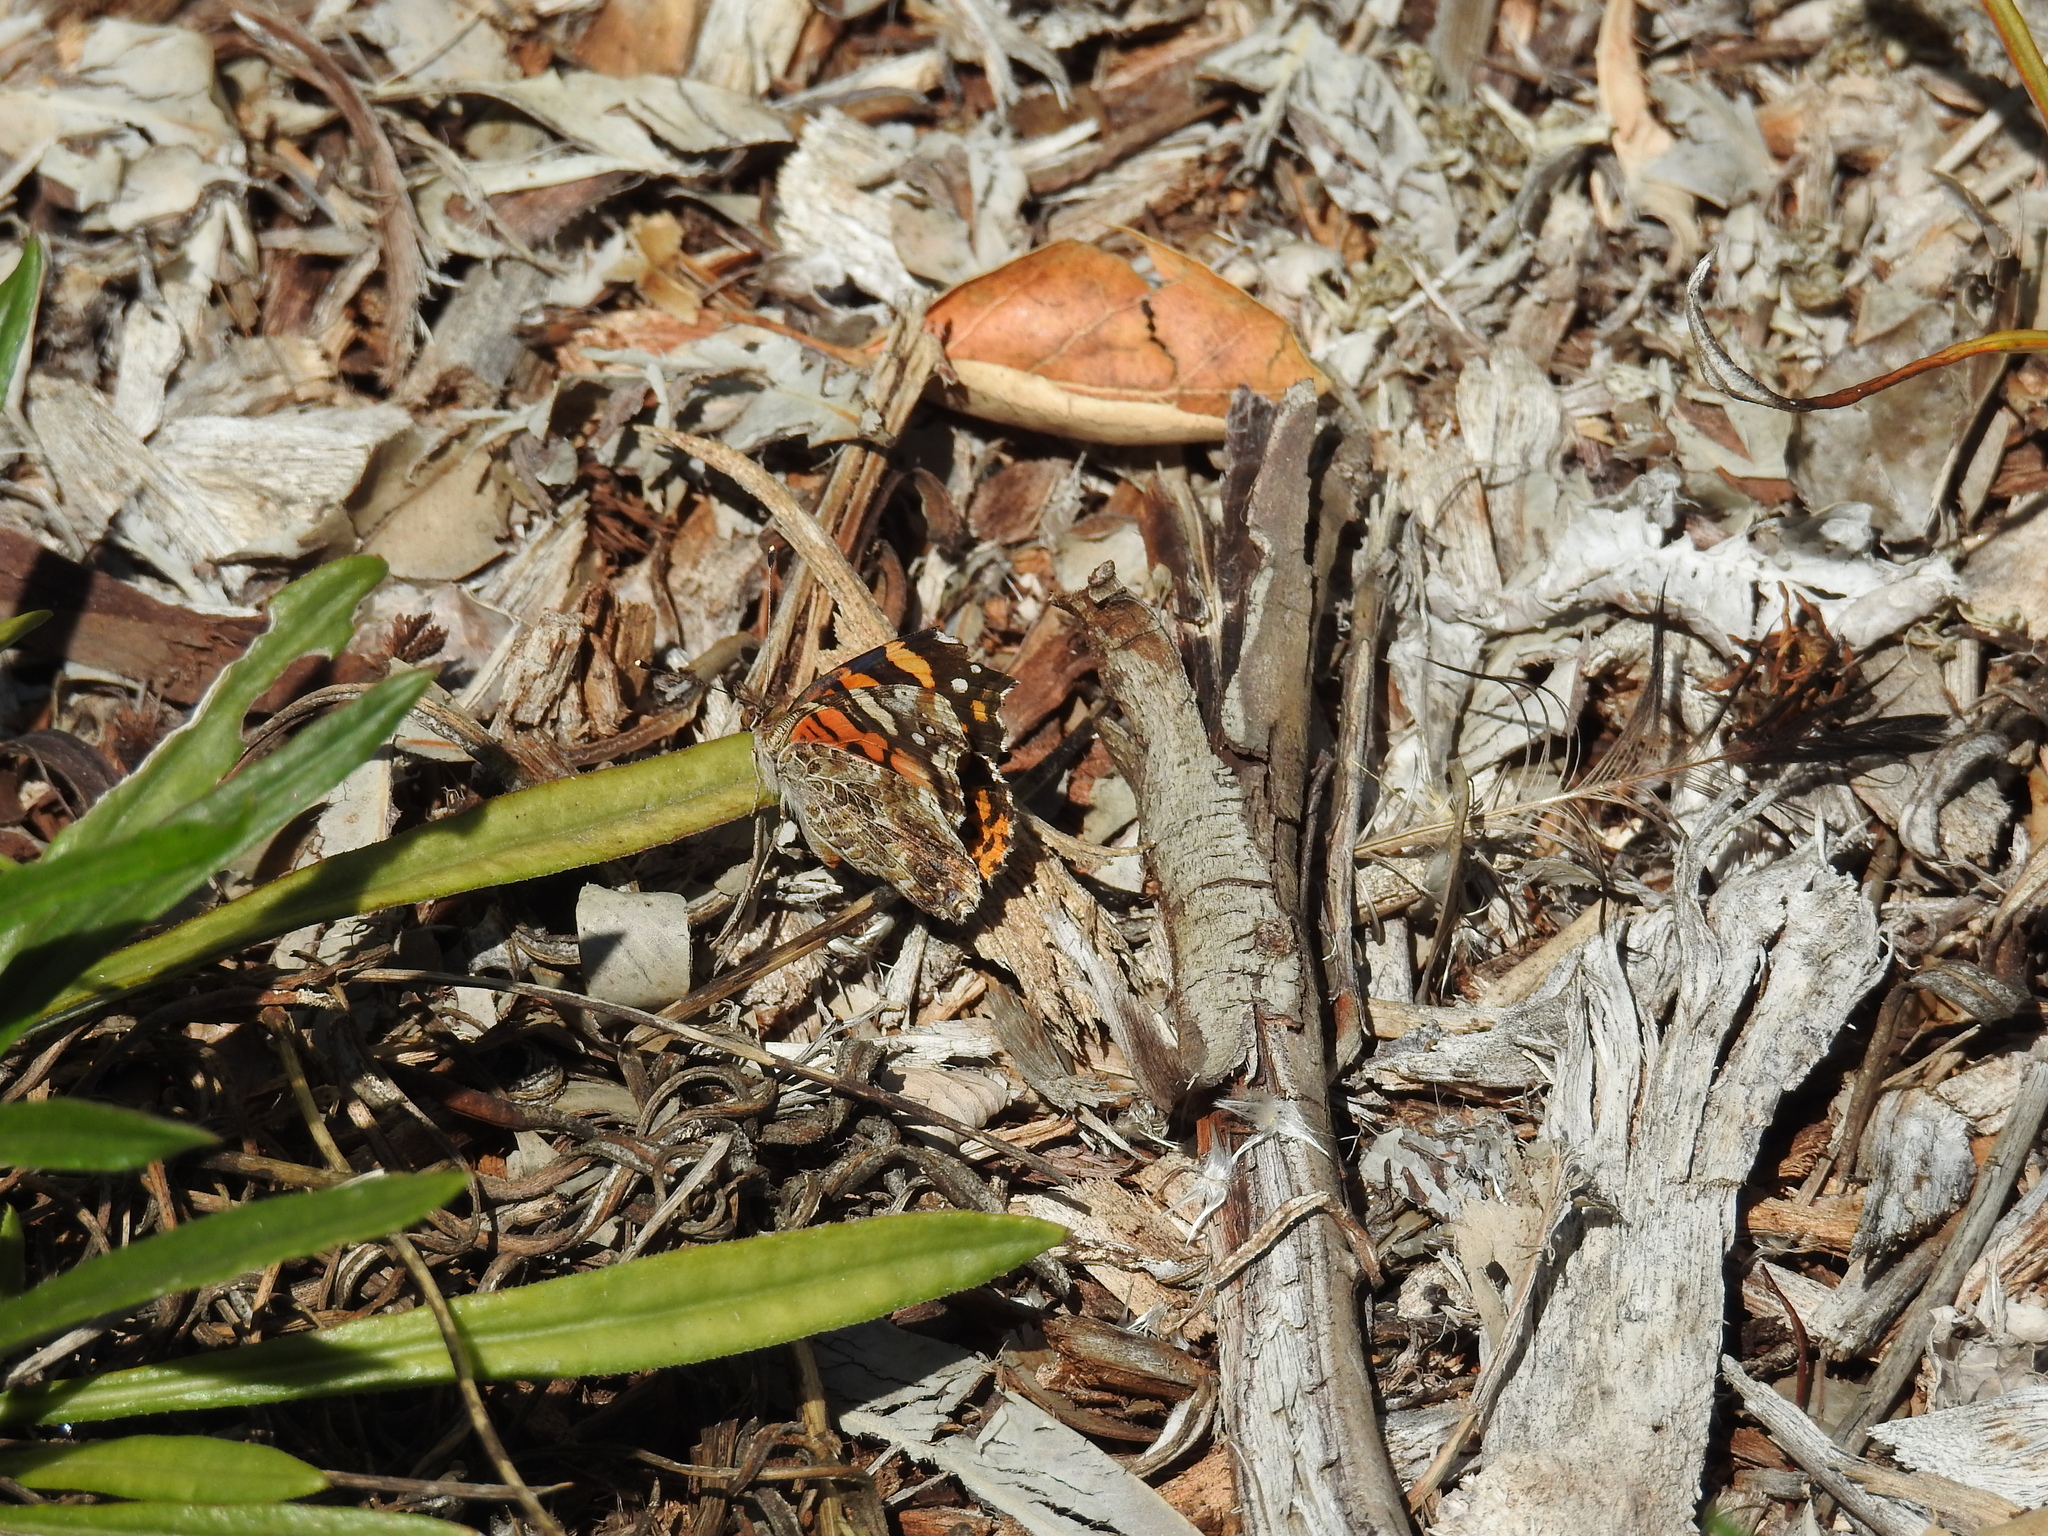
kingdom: Animalia
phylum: Arthropoda
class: Insecta
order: Lepidoptera
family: Nymphalidae
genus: Vanessa
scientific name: Vanessa cardui
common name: Painted lady
